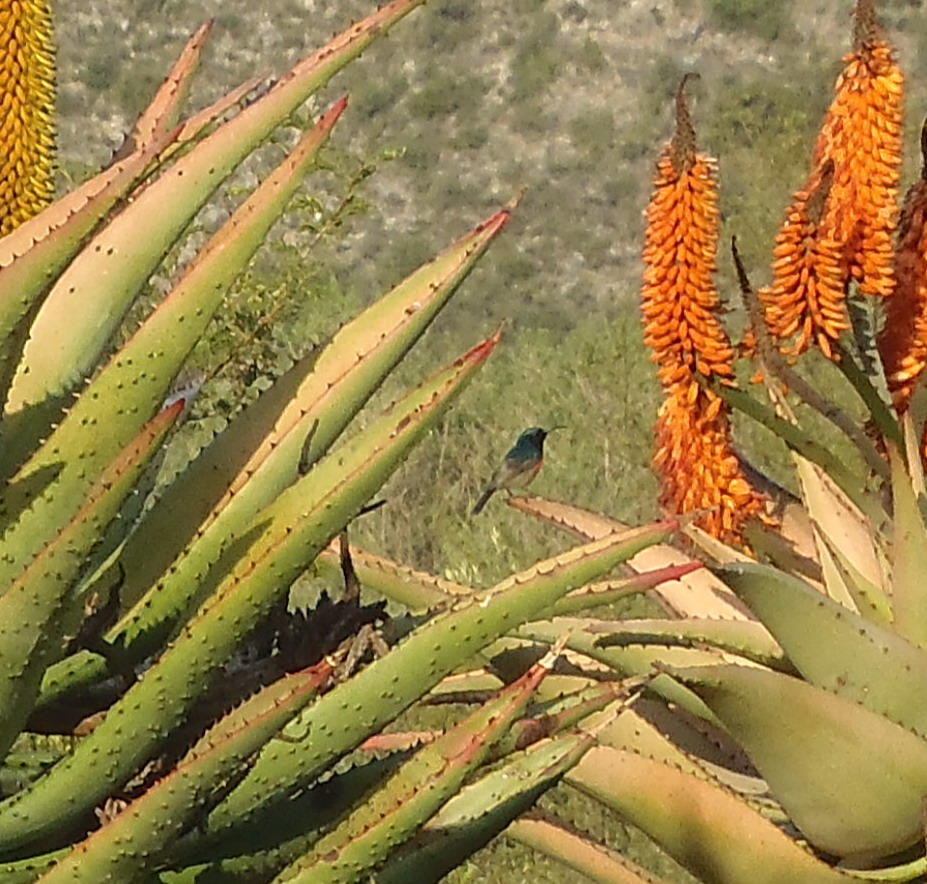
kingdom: Animalia
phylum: Chordata
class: Aves
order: Passeriformes
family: Nectariniidae
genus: Cinnyris
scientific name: Cinnyris chalybeus
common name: Southern double-collared sunbird
